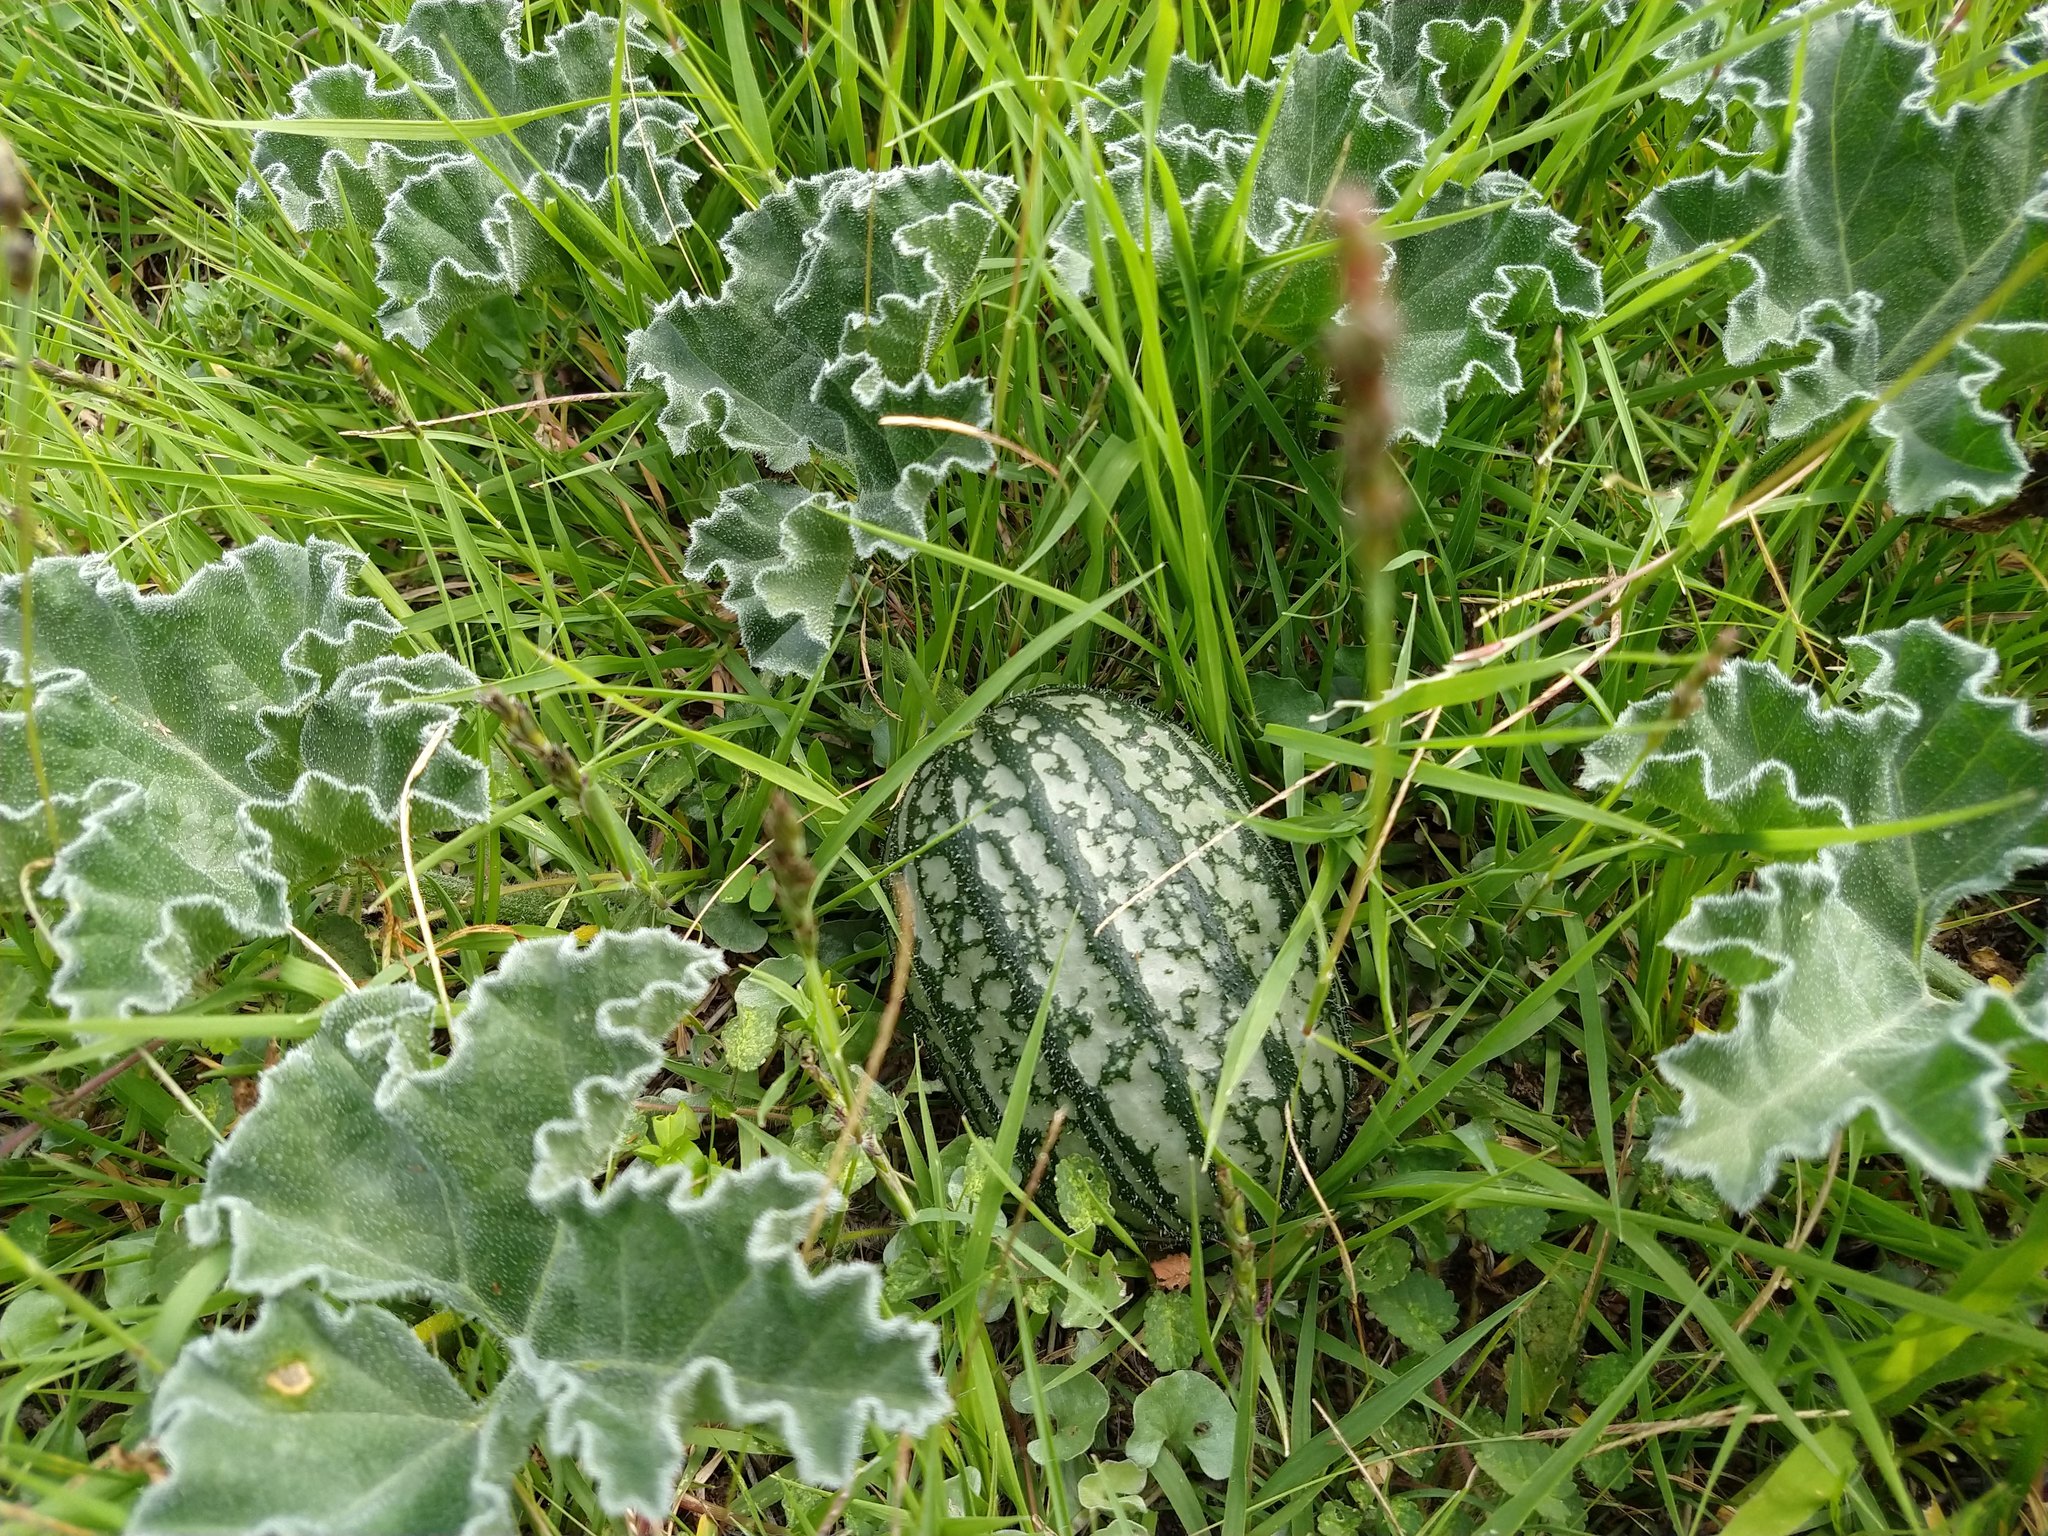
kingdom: Plantae
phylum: Tracheophyta
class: Magnoliopsida
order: Cucurbitales
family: Cucurbitaceae
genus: Apodanthera
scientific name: Apodanthera aspera
